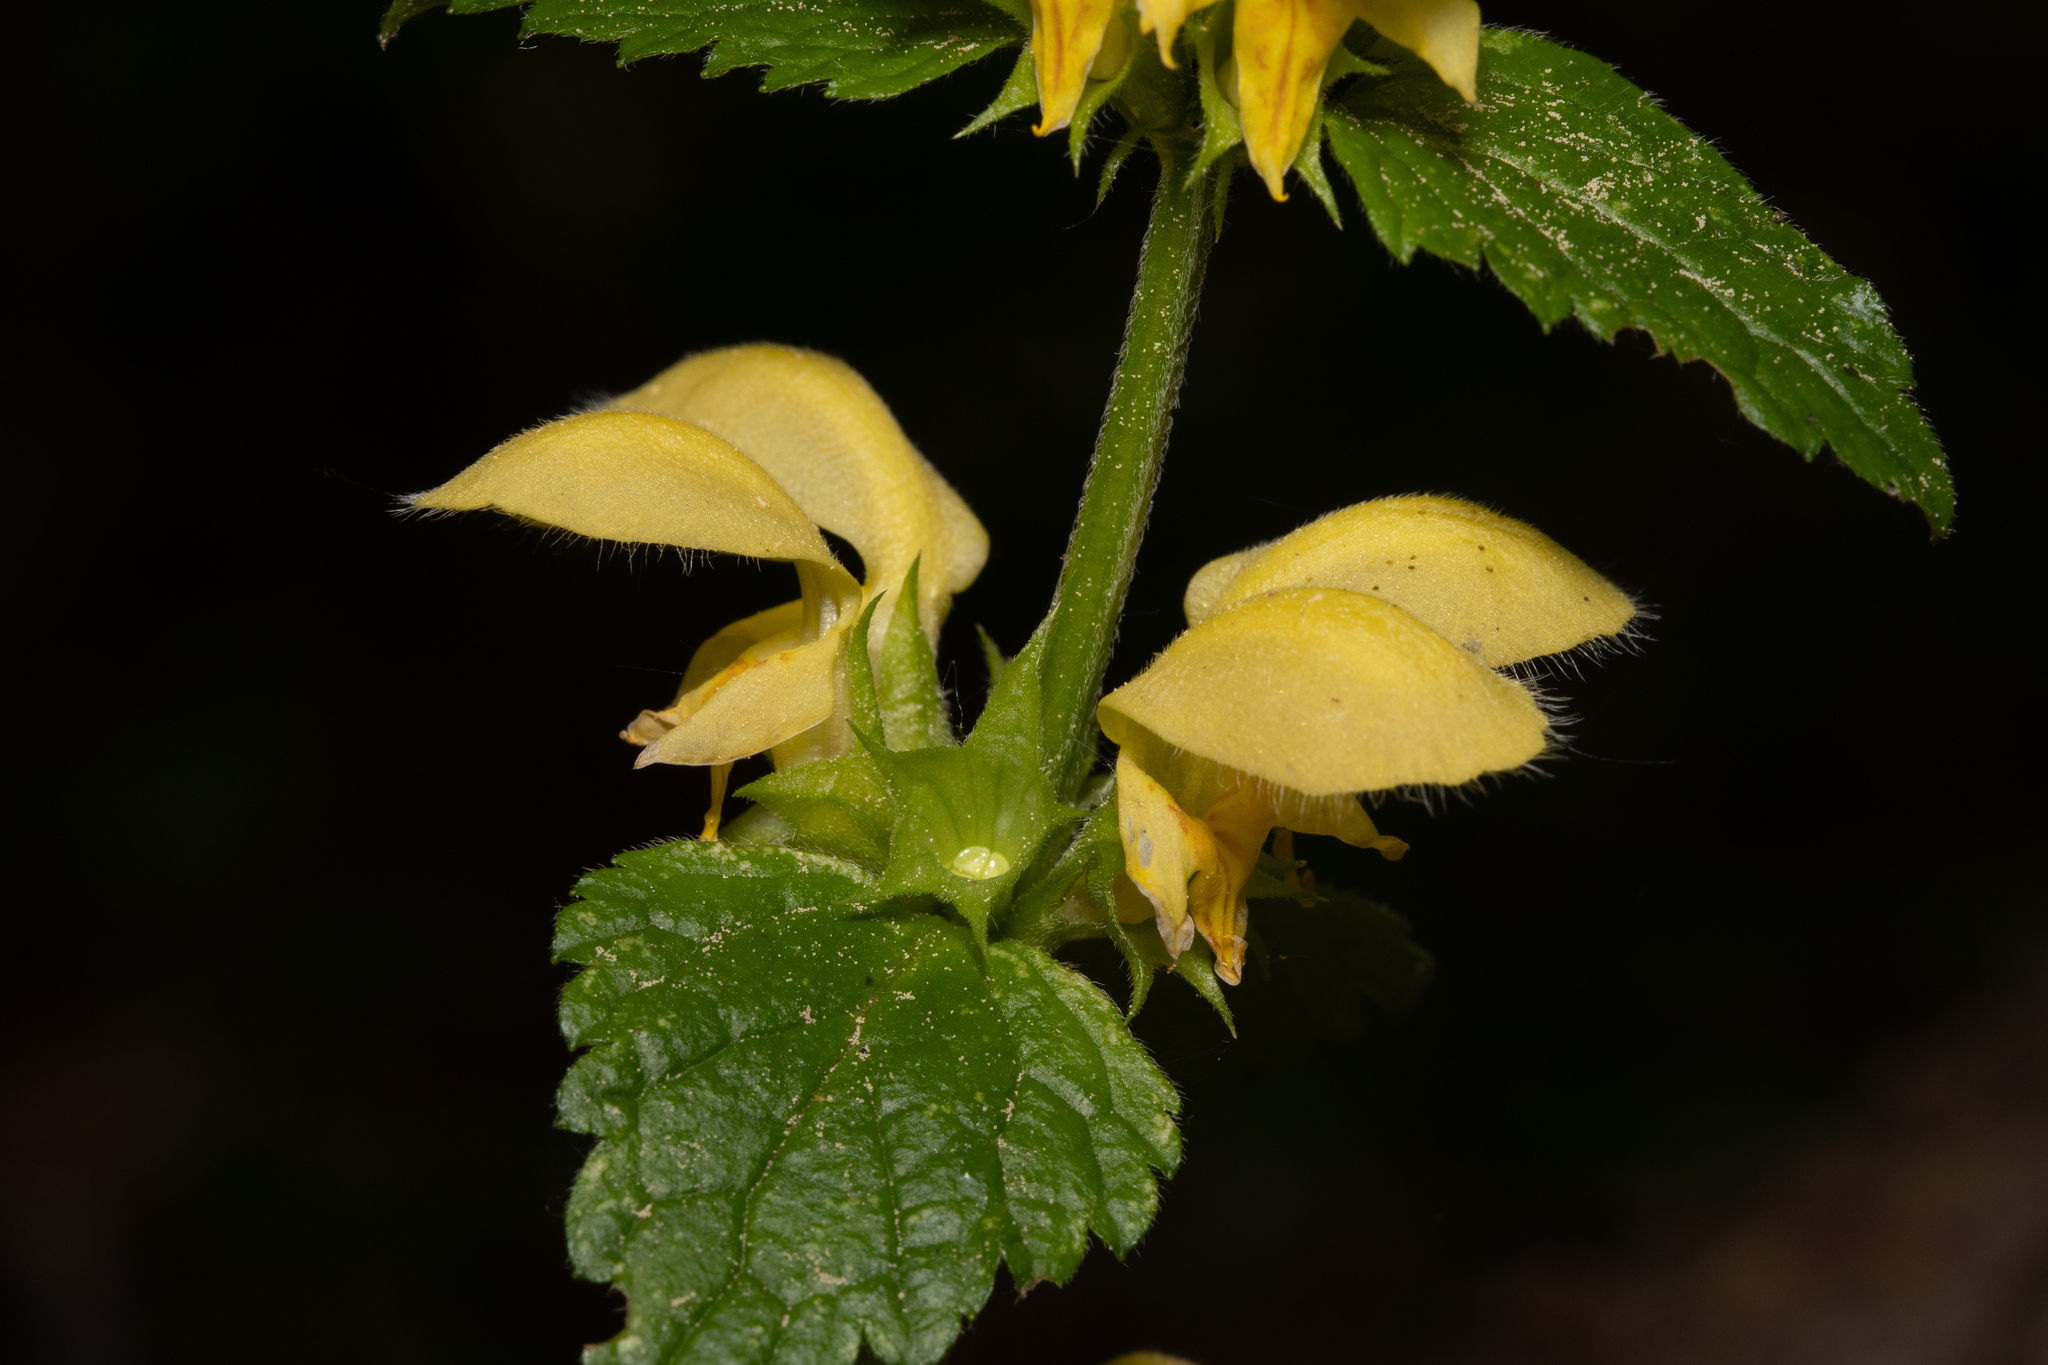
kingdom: Plantae
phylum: Tracheophyta
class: Magnoliopsida
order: Lamiales
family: Lamiaceae
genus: Lamium
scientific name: Lamium galeobdolon
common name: Yellow archangel
